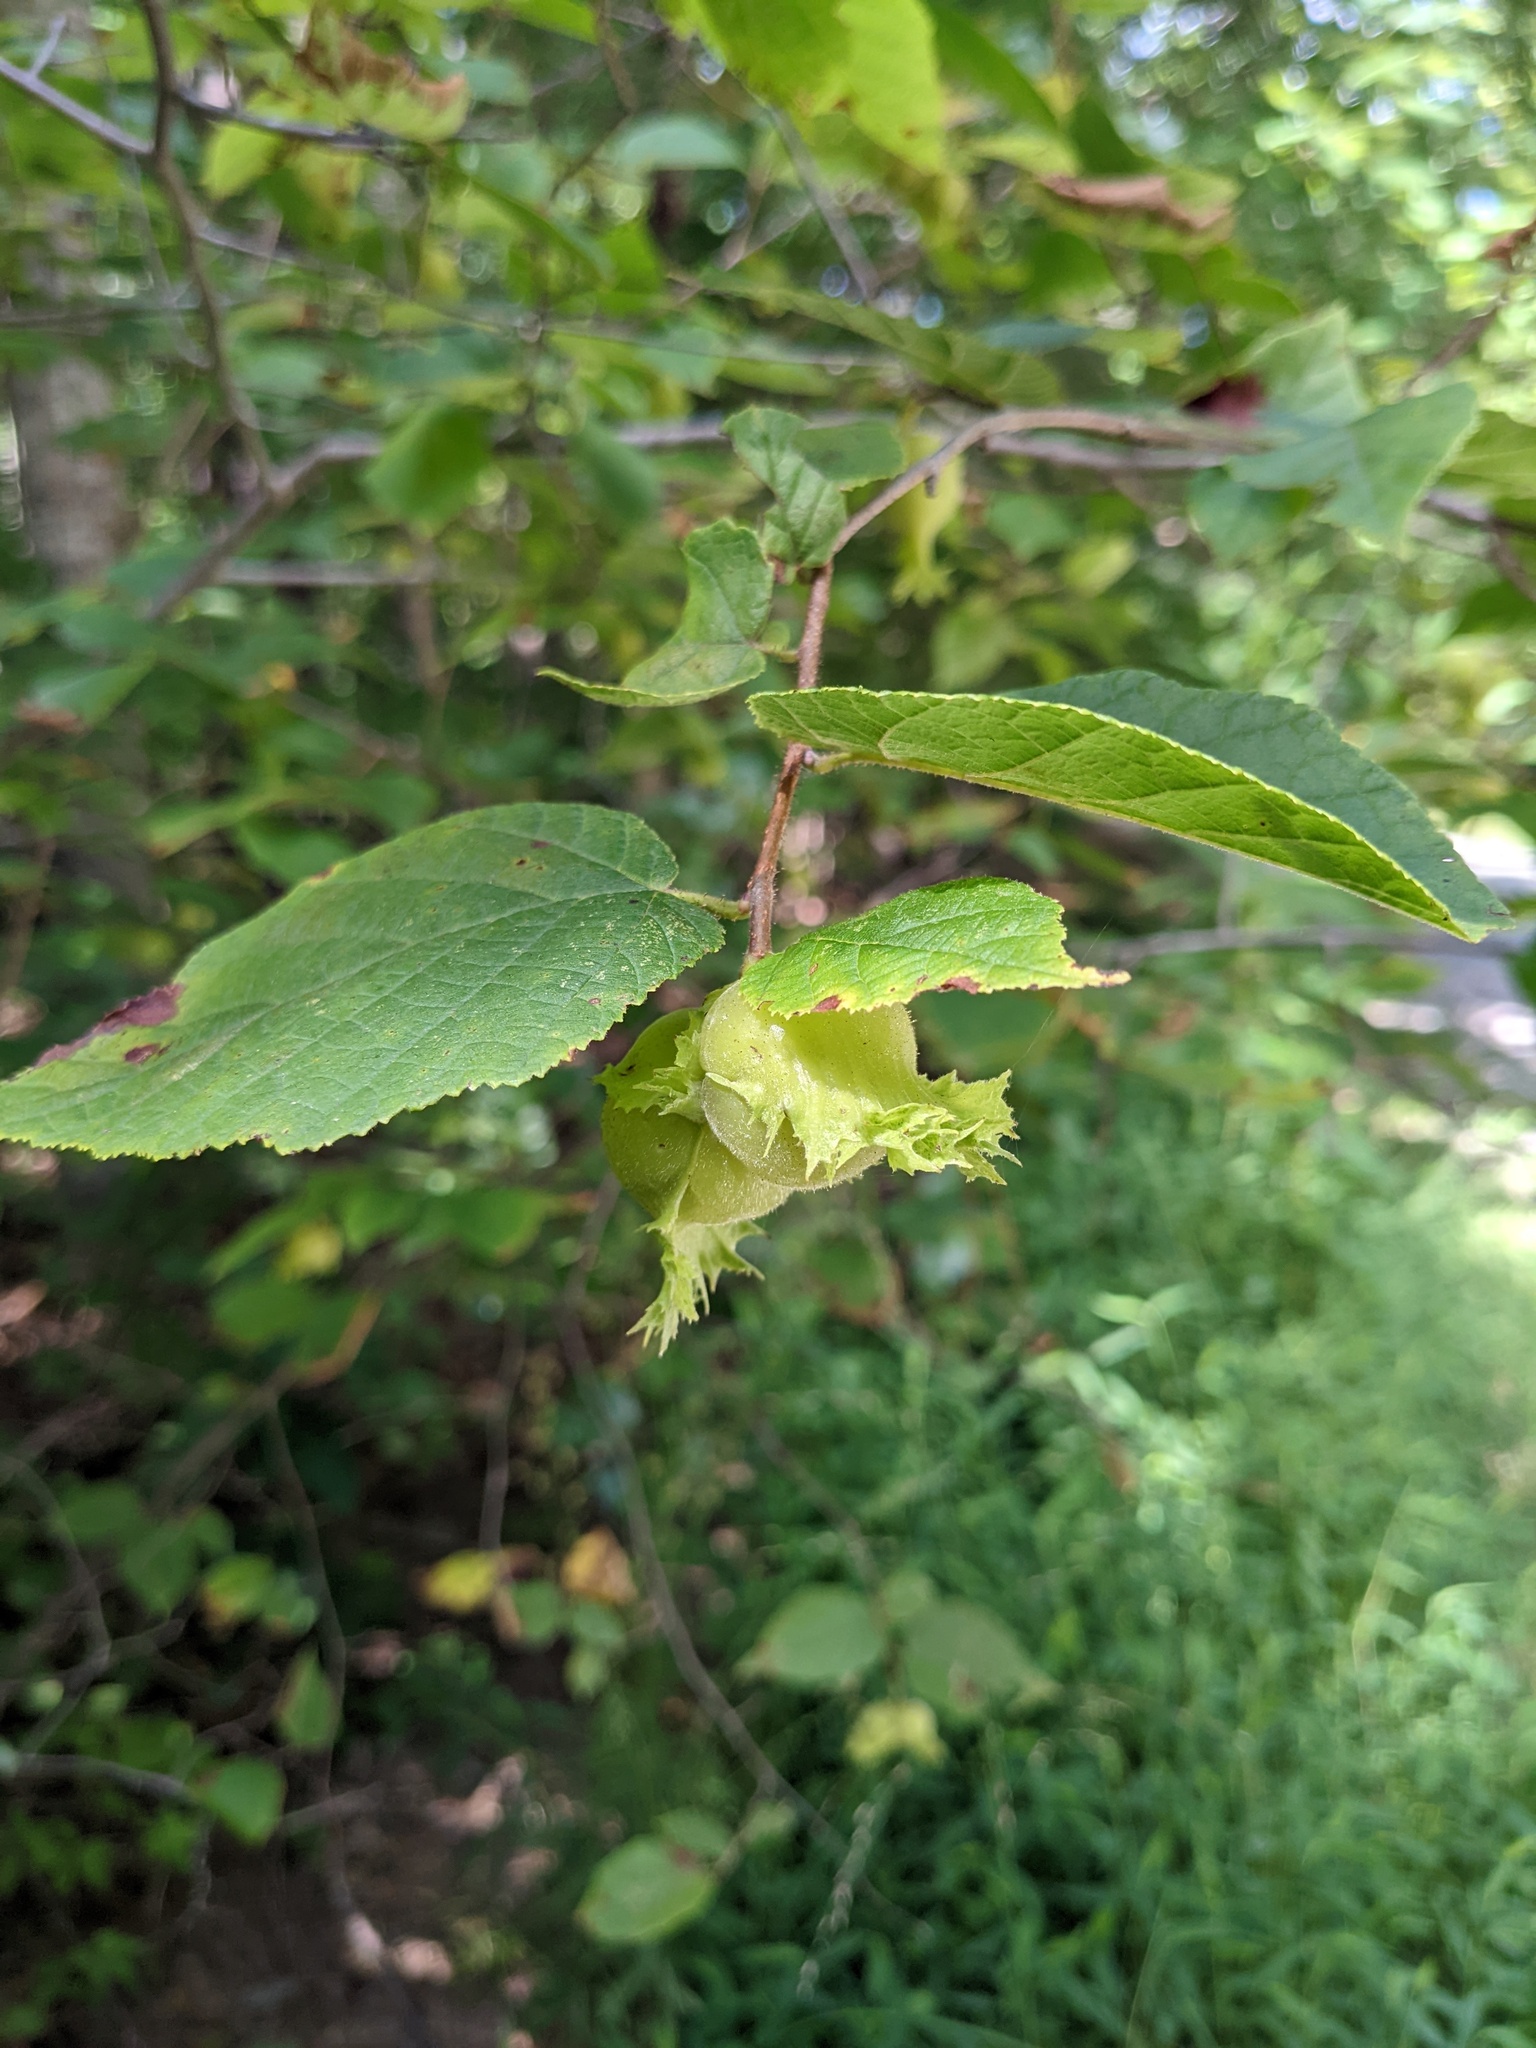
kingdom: Plantae
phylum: Tracheophyta
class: Magnoliopsida
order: Fagales
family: Betulaceae
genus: Corylus
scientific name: Corylus americana
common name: American hazel
